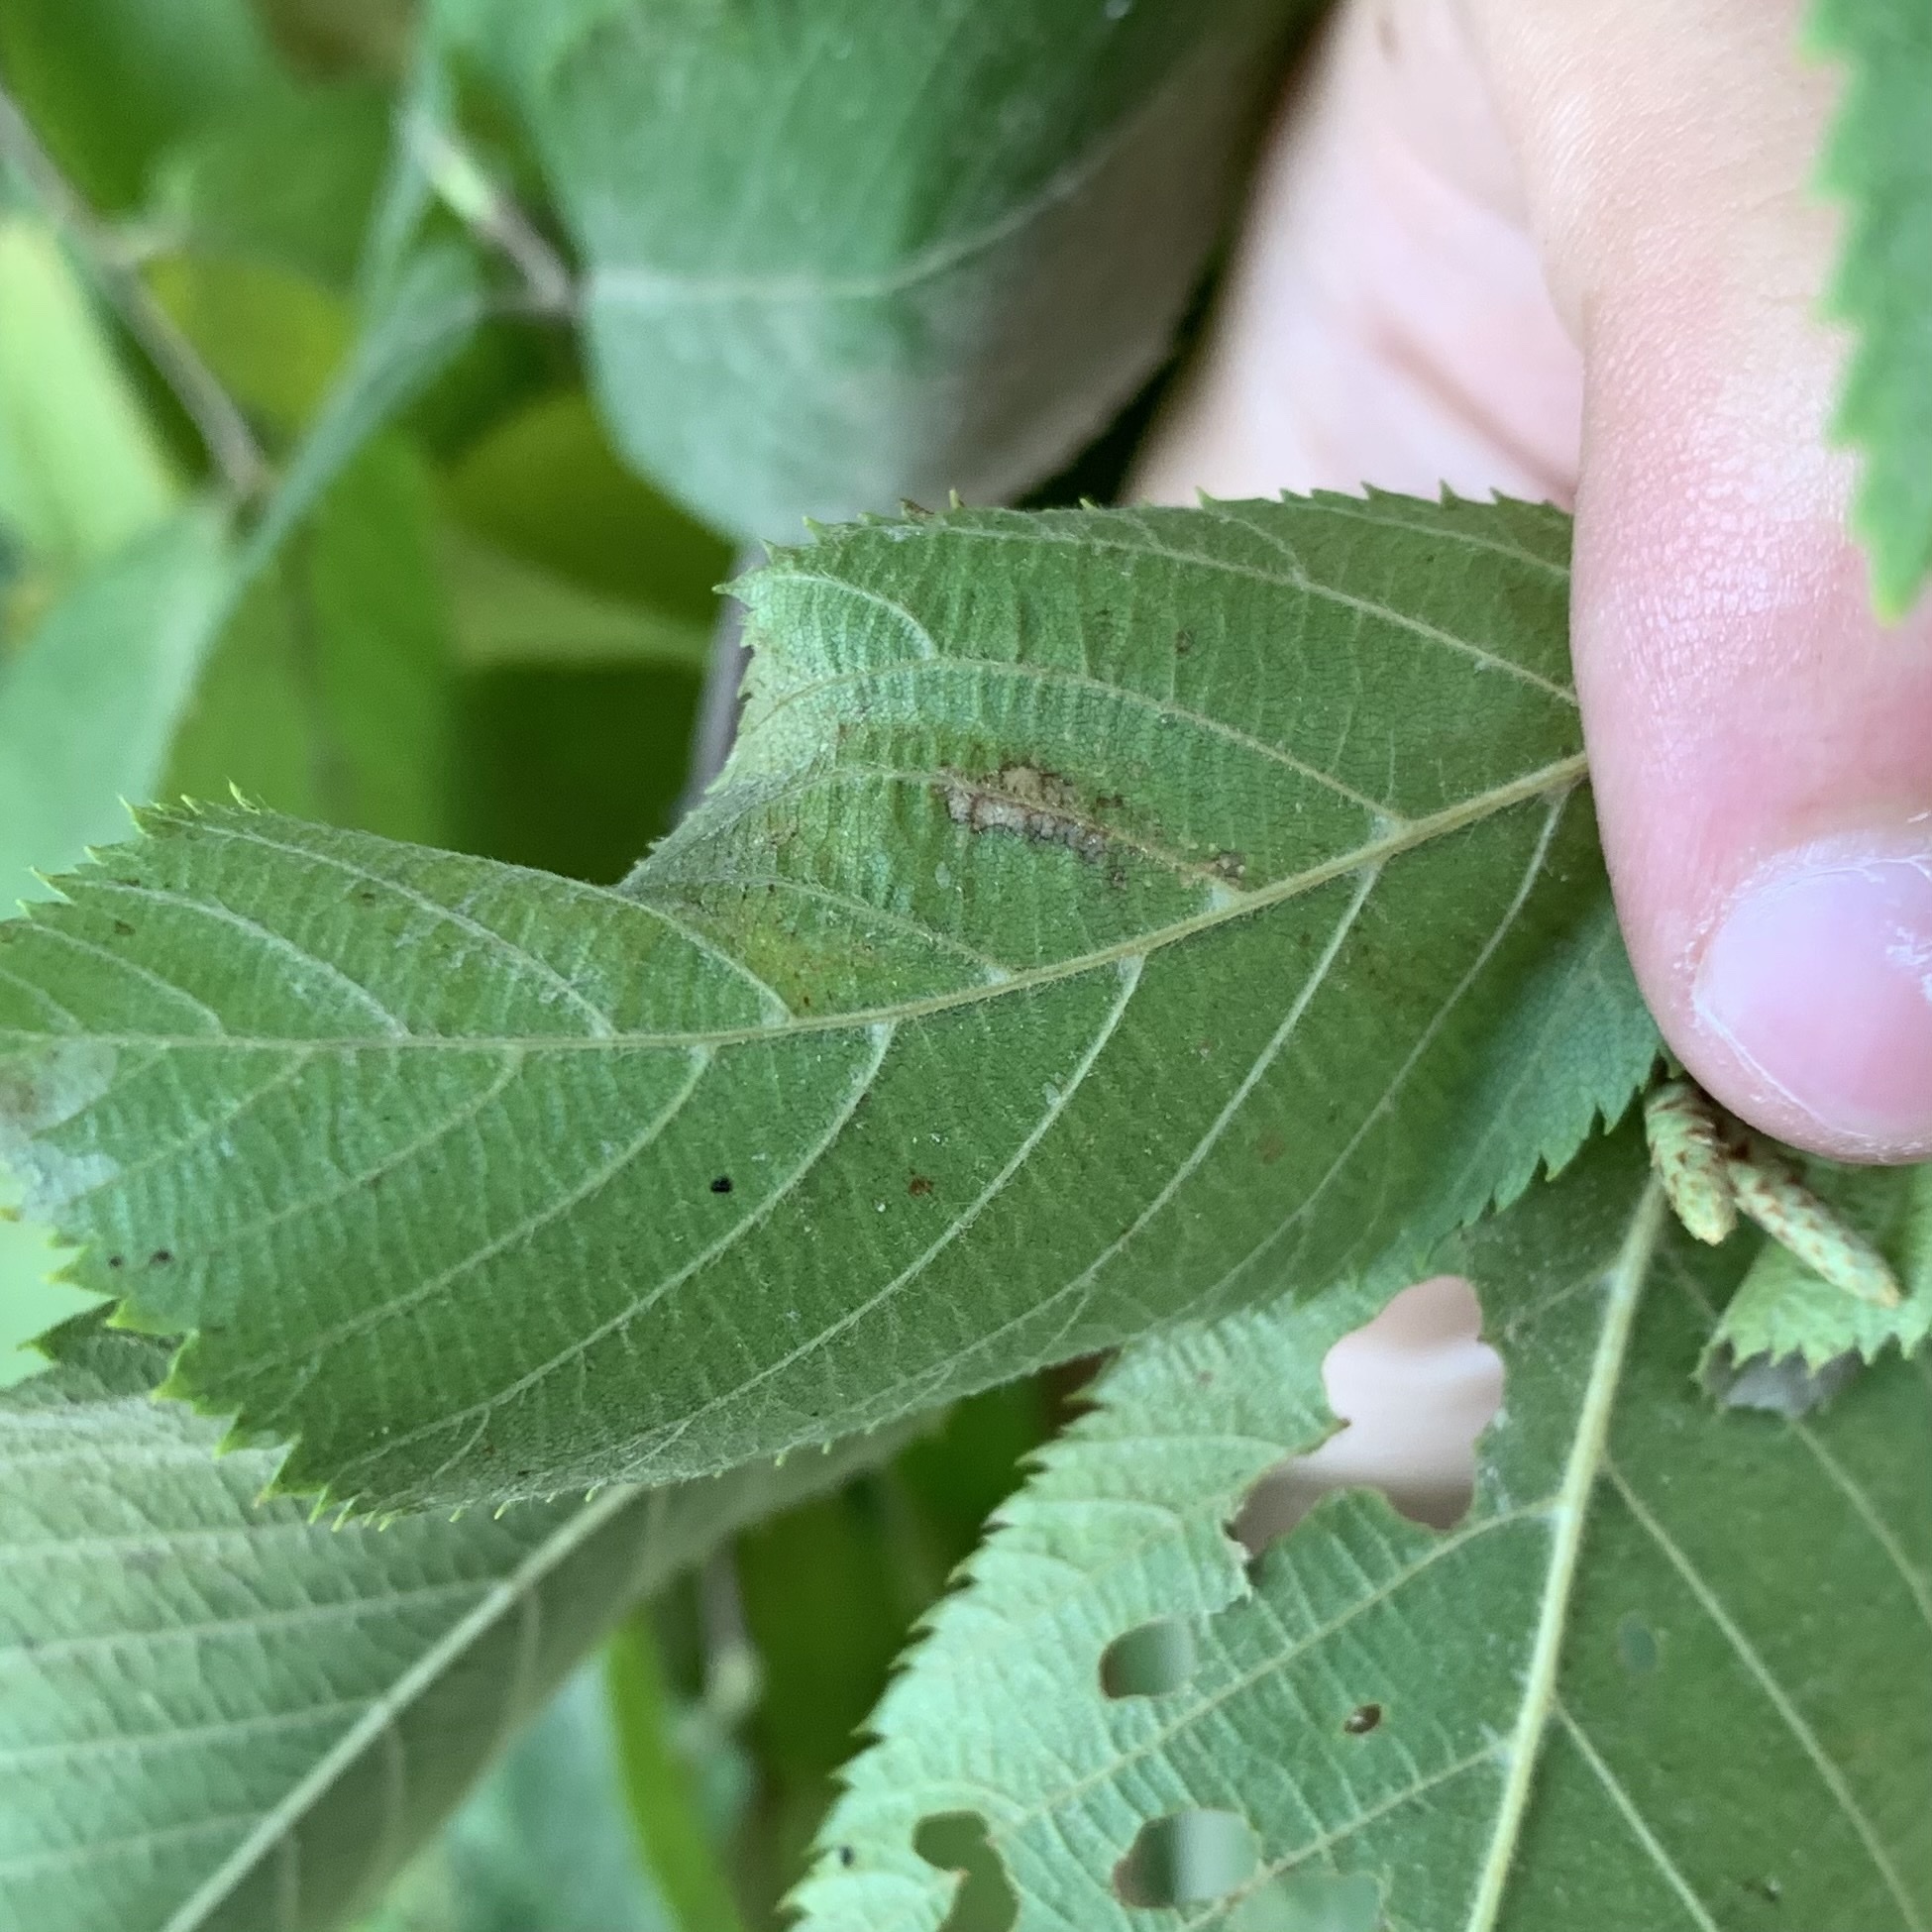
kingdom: Animalia
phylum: Arthropoda
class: Insecta
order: Lepidoptera
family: Gracillariidae
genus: Caloptilia
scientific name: Caloptilia ostryaeella
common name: Ironwood leafcone moth
